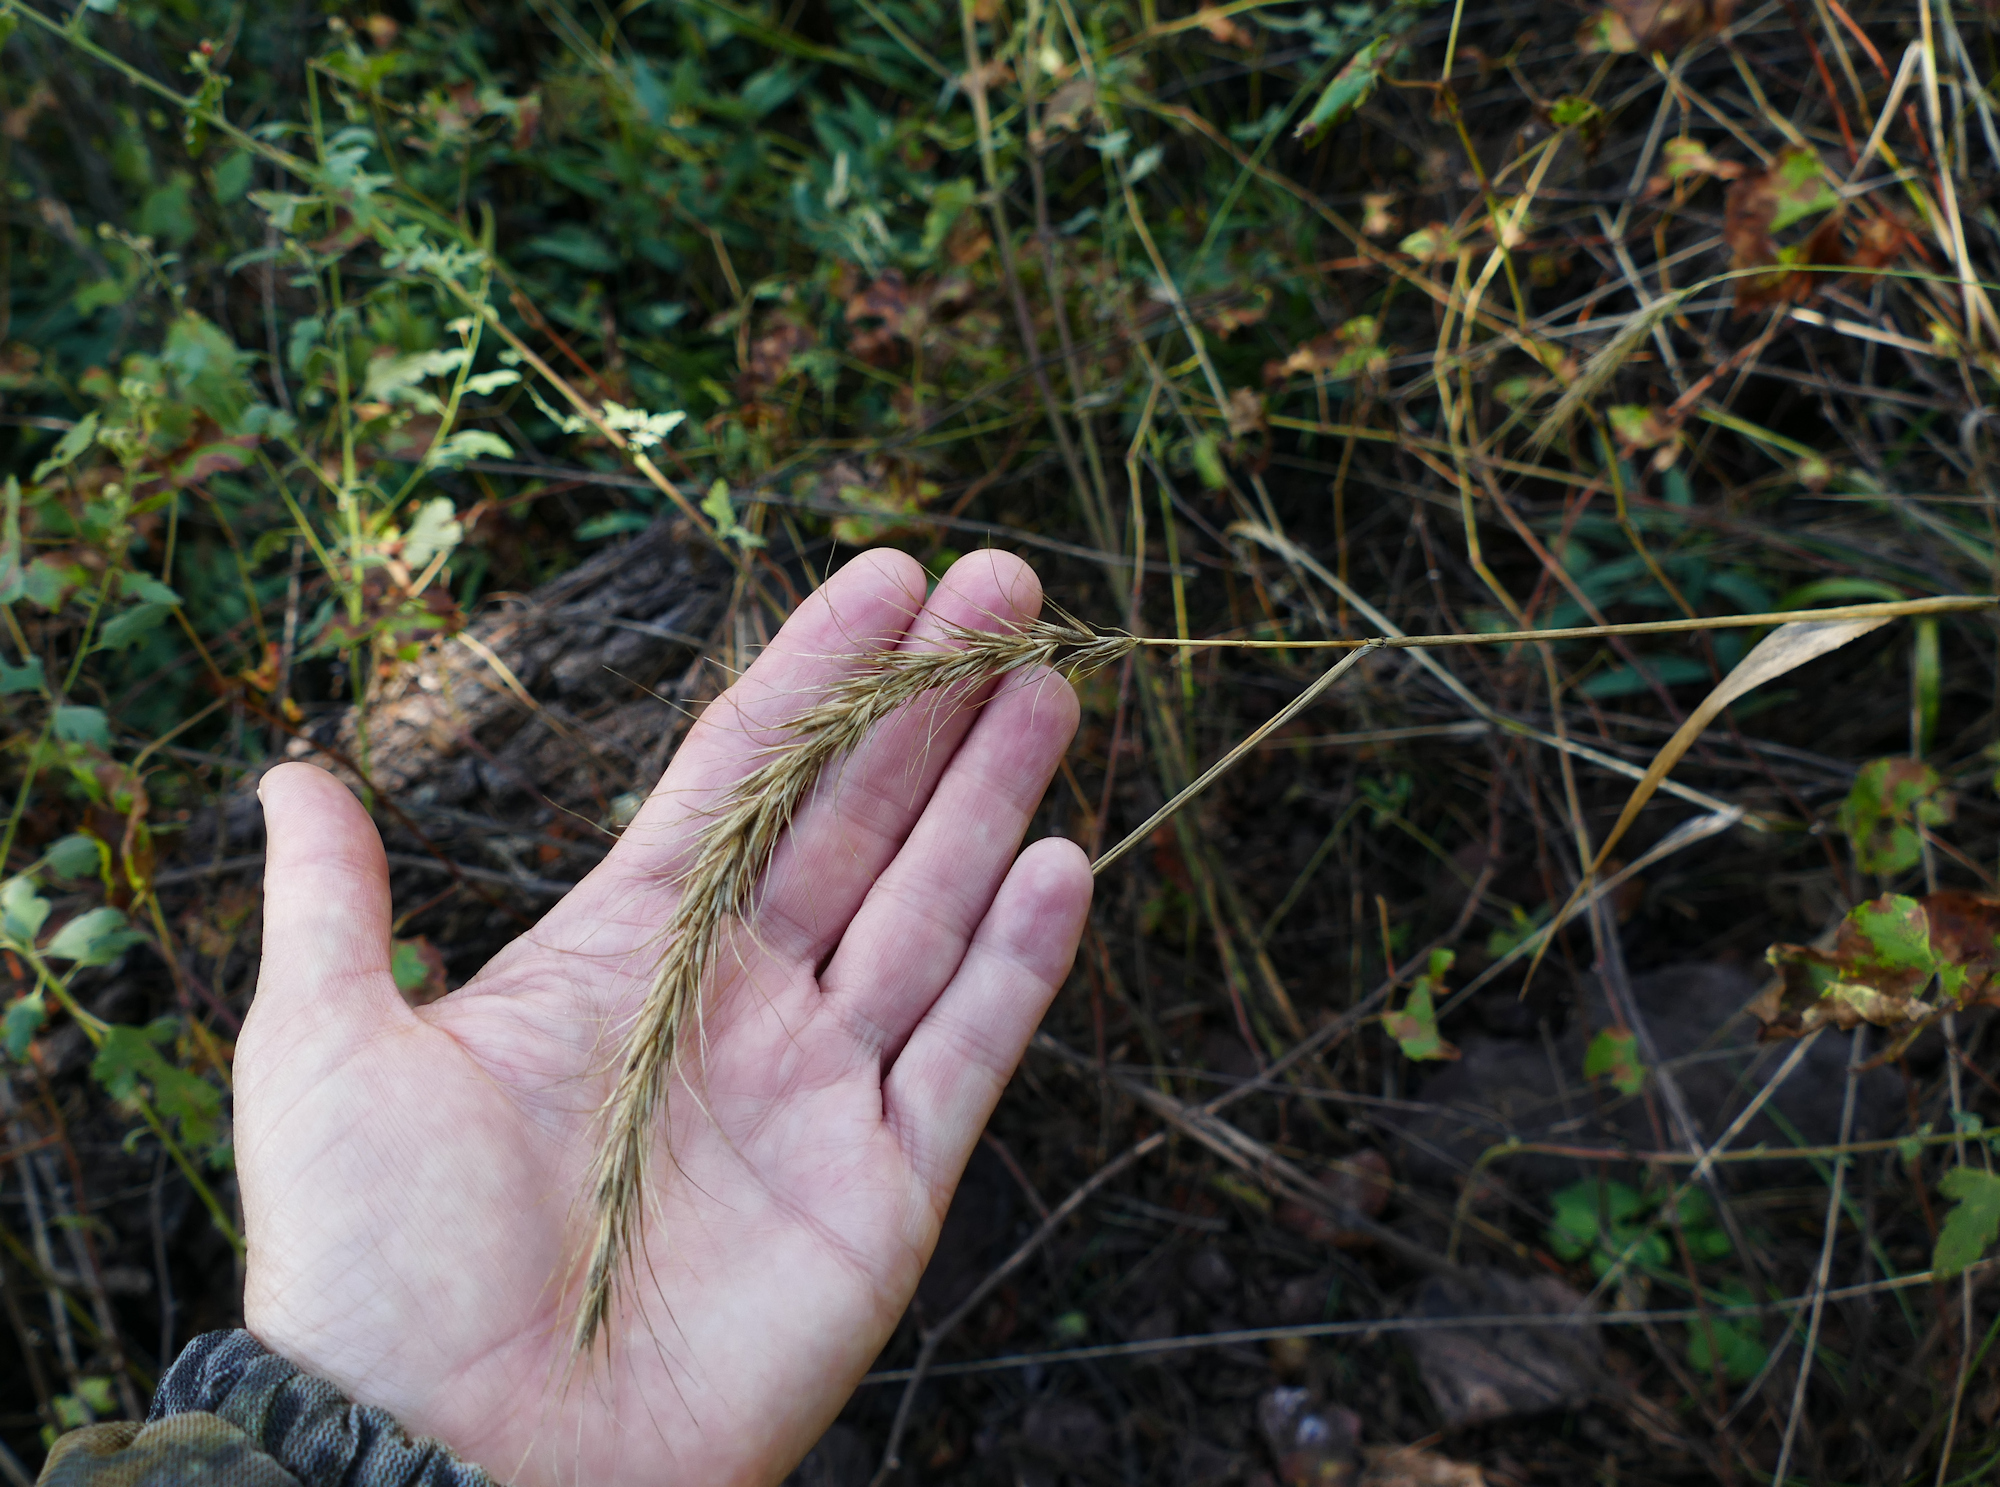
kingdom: Plantae
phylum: Tracheophyta
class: Liliopsida
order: Poales
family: Poaceae
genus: Elymus
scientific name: Elymus canadensis
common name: Canada wild rye
